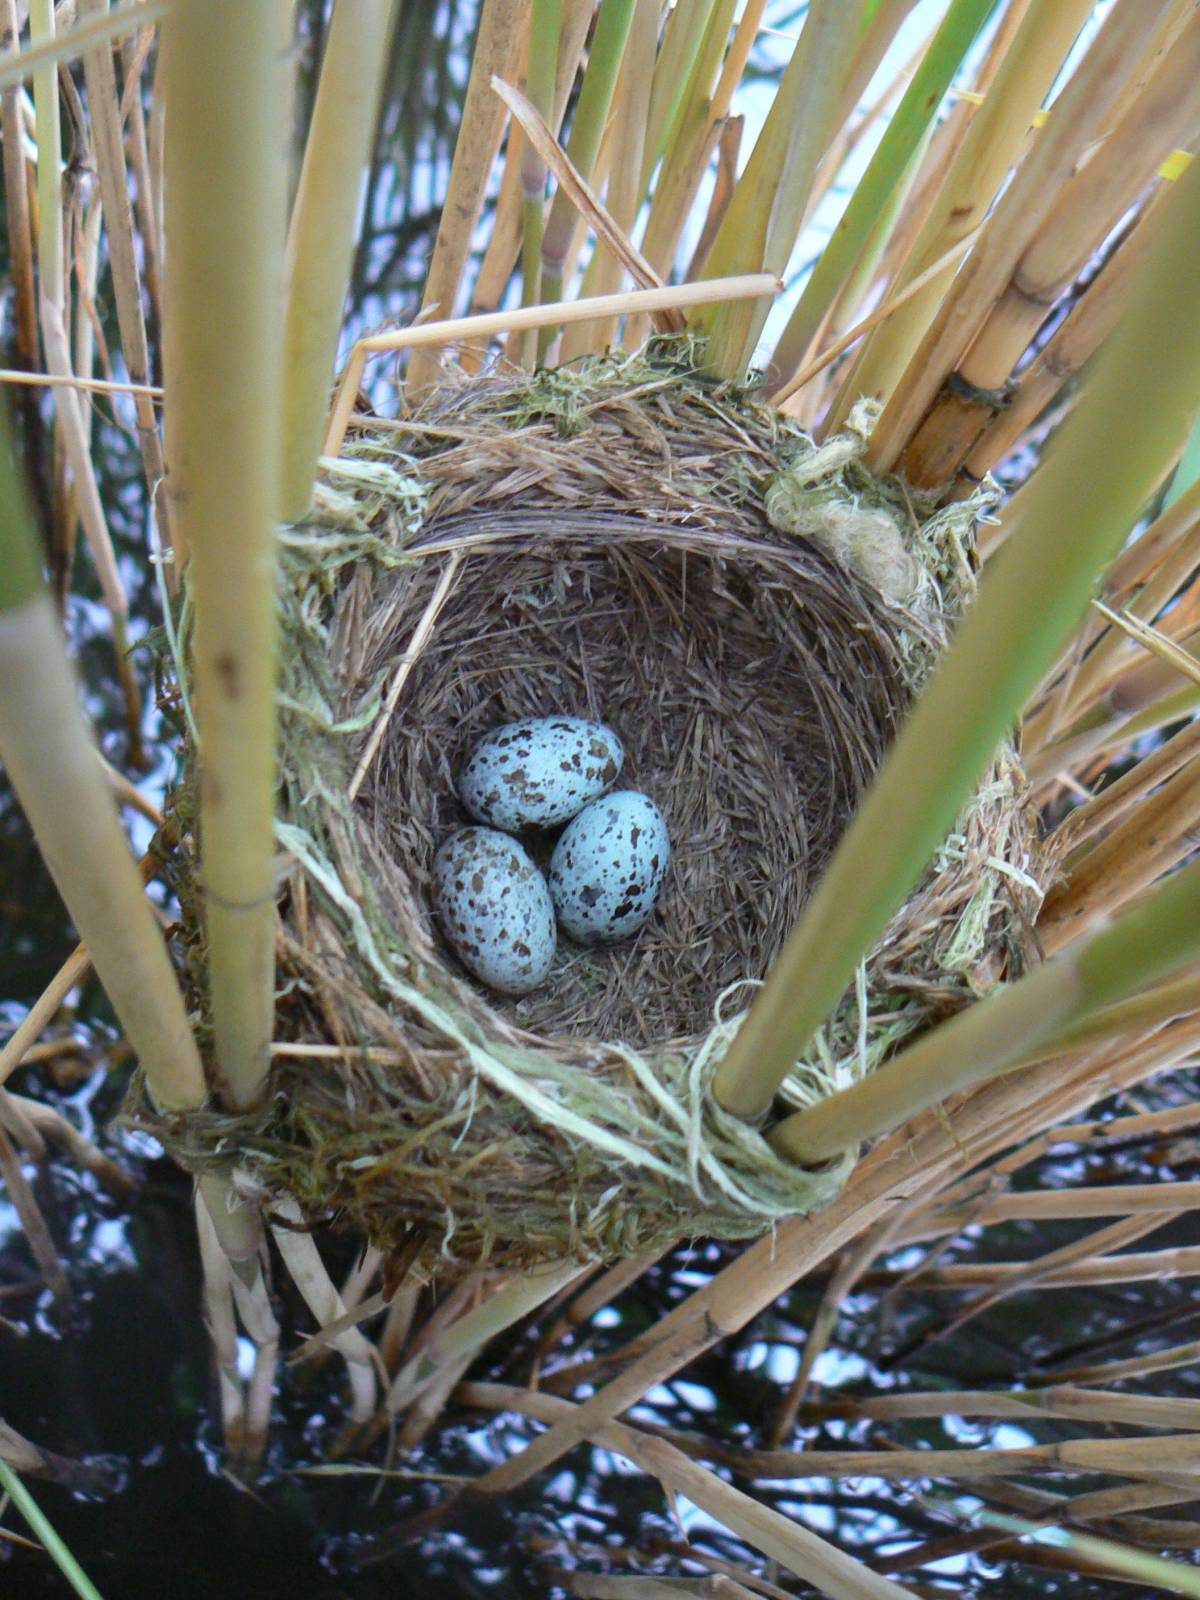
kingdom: Animalia
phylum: Chordata
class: Aves
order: Passeriformes
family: Acrocephalidae
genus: Acrocephalus
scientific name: Acrocephalus arundinaceus
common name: Great reed warbler
